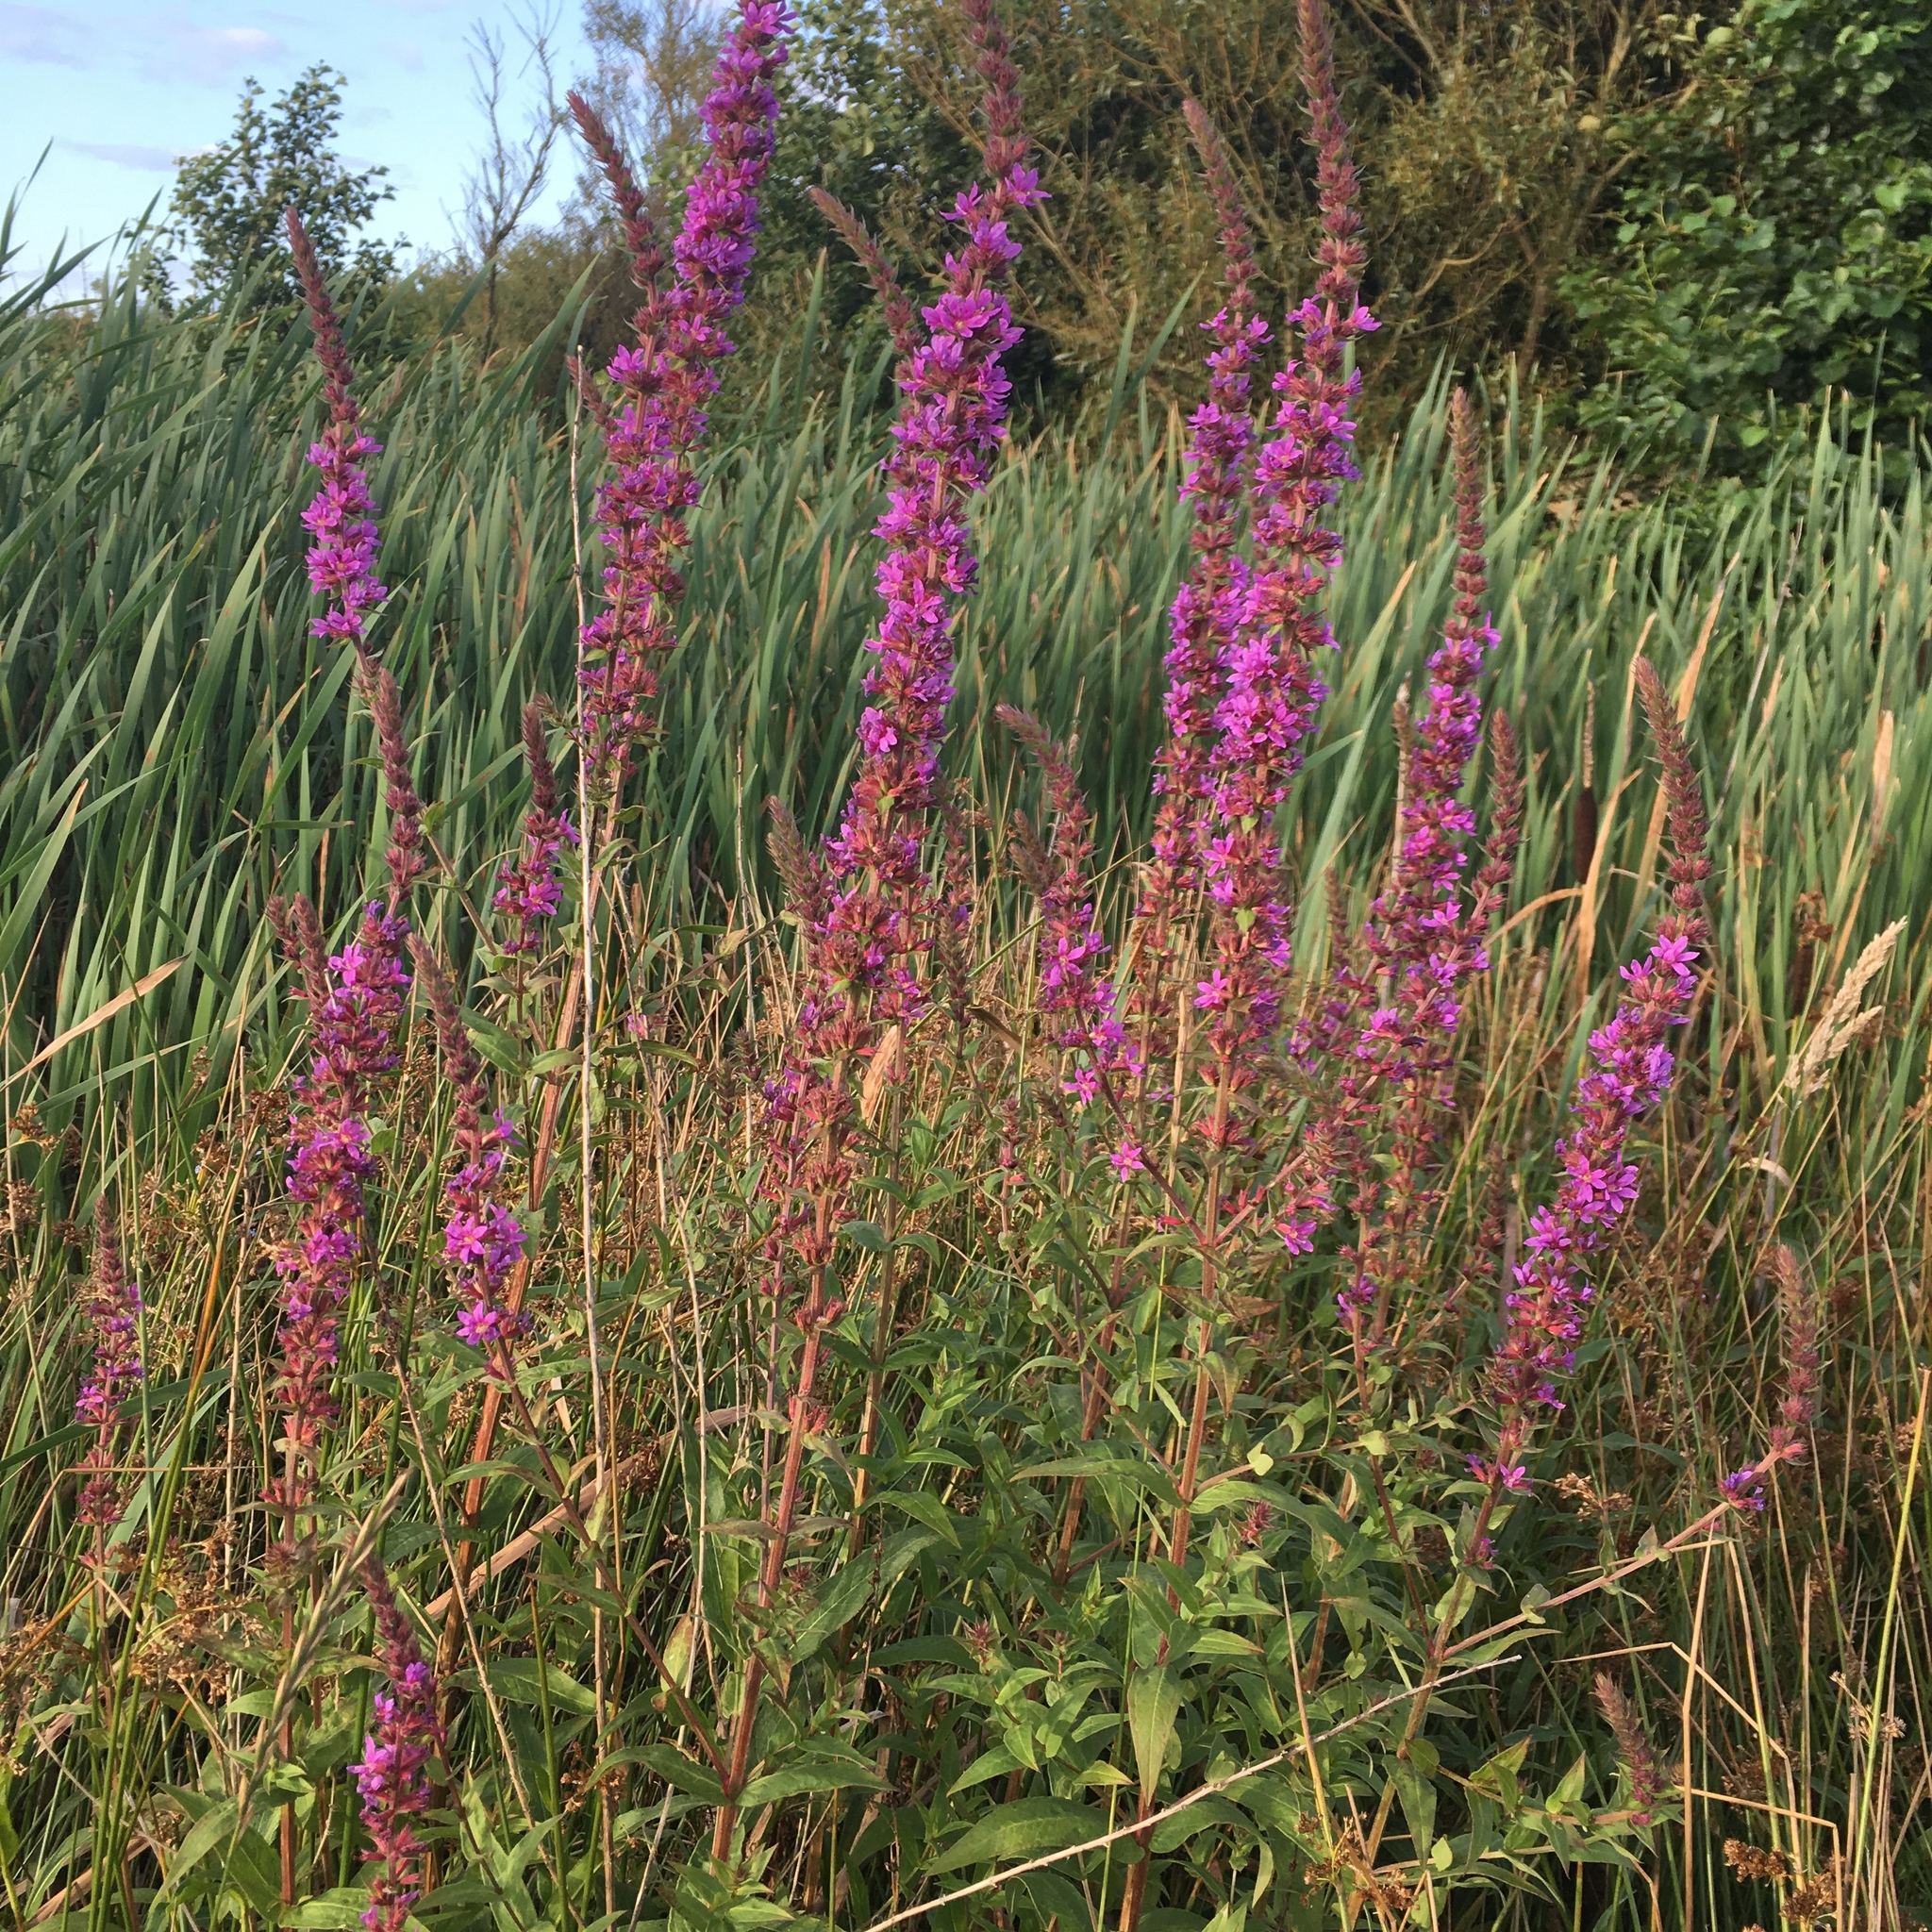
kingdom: Plantae
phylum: Tracheophyta
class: Magnoliopsida
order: Myrtales
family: Lythraceae
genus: Lythrum
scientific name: Lythrum salicaria
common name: Purple loosestrife
